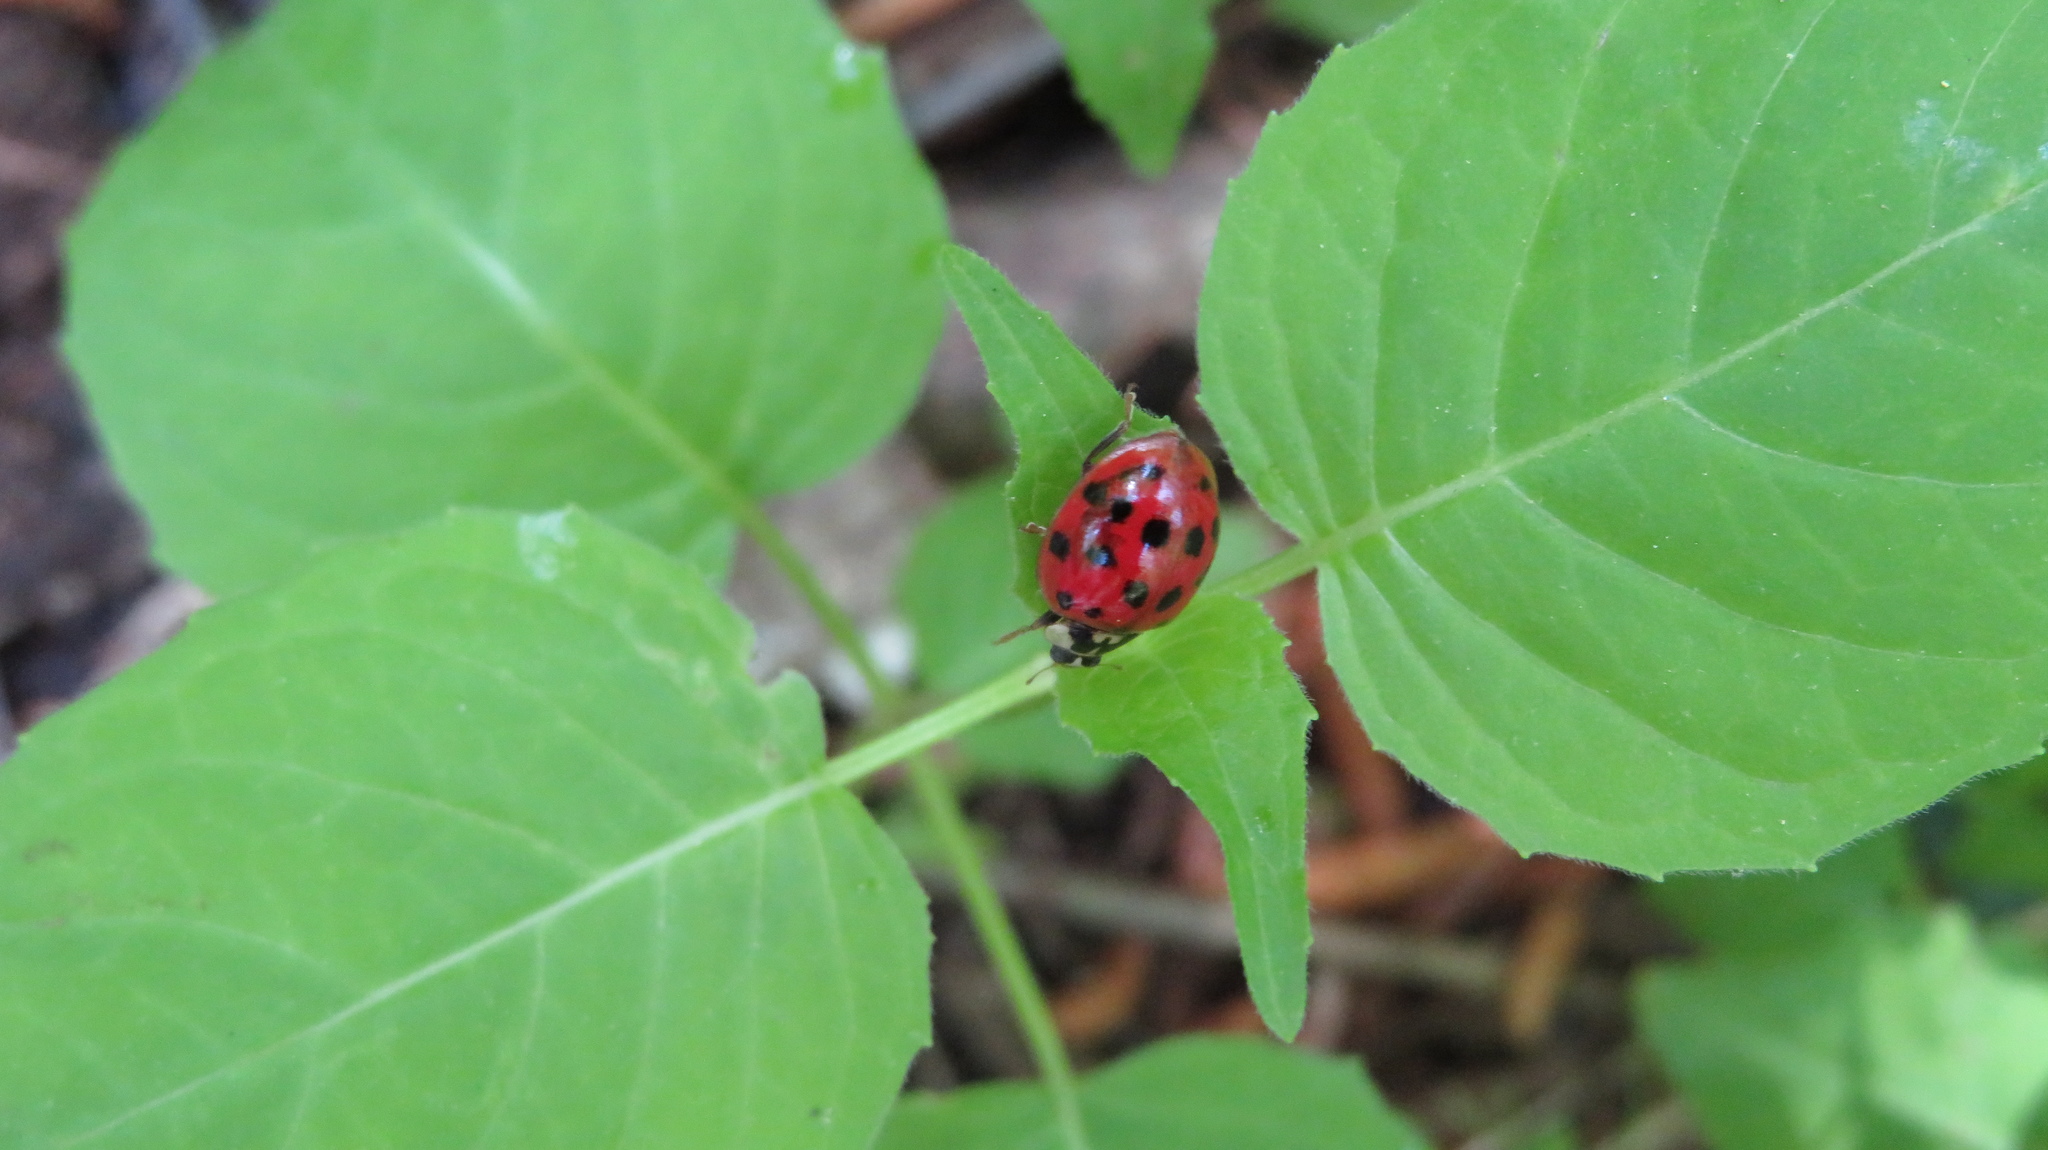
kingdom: Animalia
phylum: Arthropoda
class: Insecta
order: Coleoptera
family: Coccinellidae
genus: Harmonia
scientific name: Harmonia axyridis
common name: Harlequin ladybird
